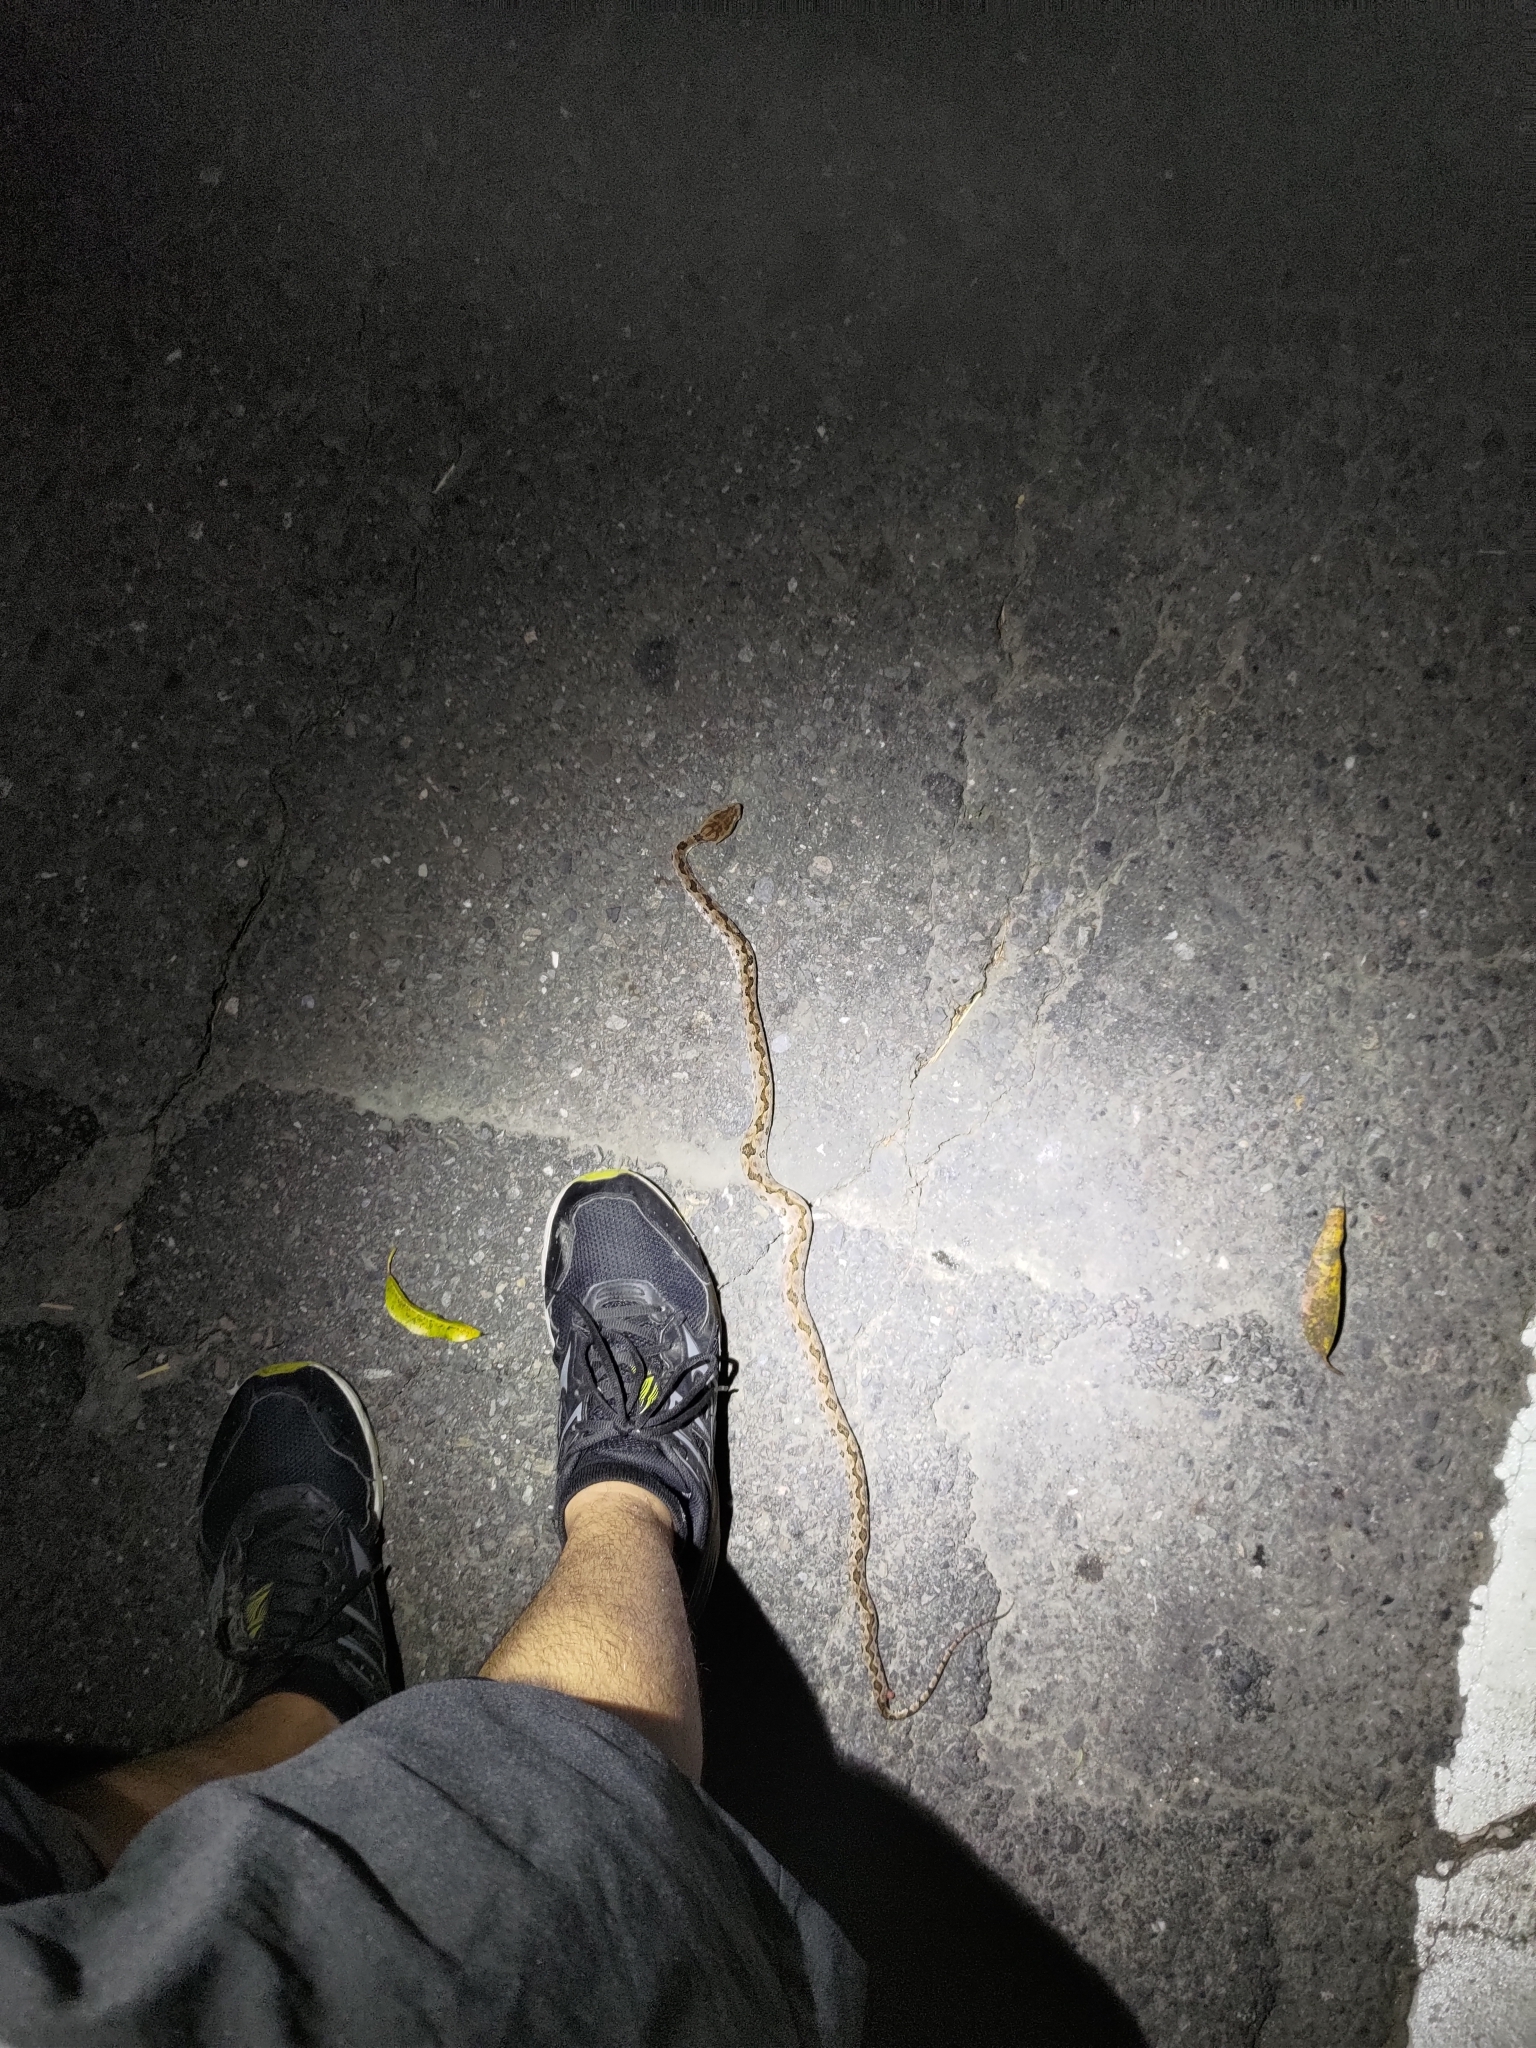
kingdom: Animalia
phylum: Chordata
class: Squamata
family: Viperidae
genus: Protobothrops
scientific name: Protobothrops mucrosquamatus
